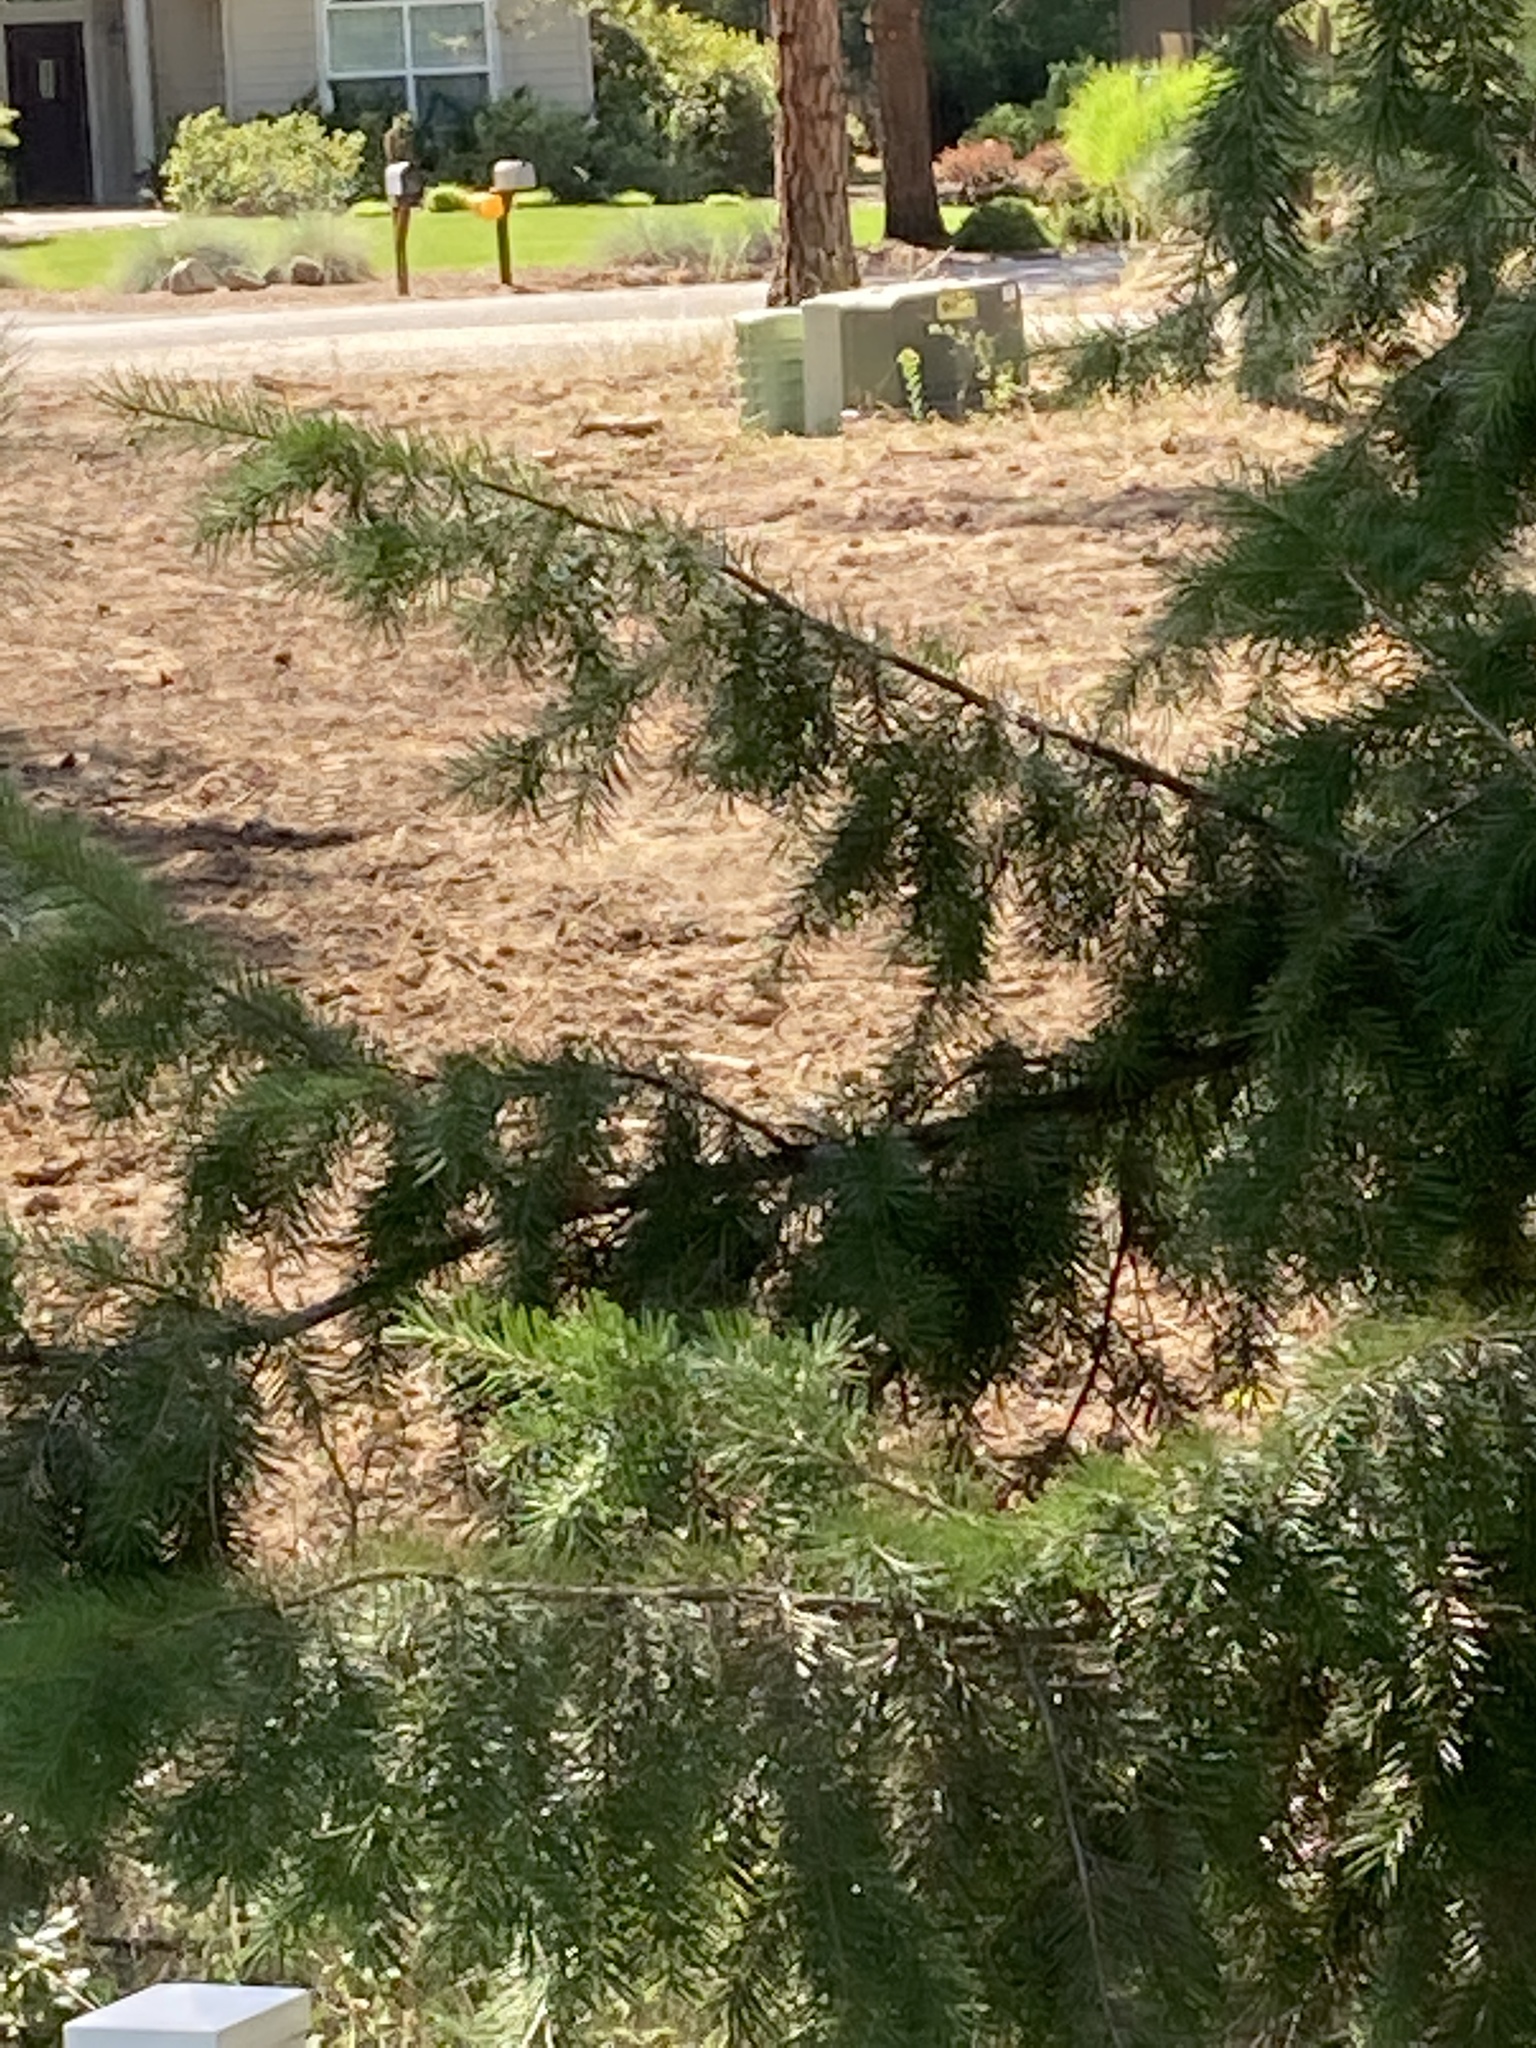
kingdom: Plantae
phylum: Tracheophyta
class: Pinopsida
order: Pinales
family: Pinaceae
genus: Pseudotsuga
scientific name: Pseudotsuga menziesii
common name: Douglas fir
